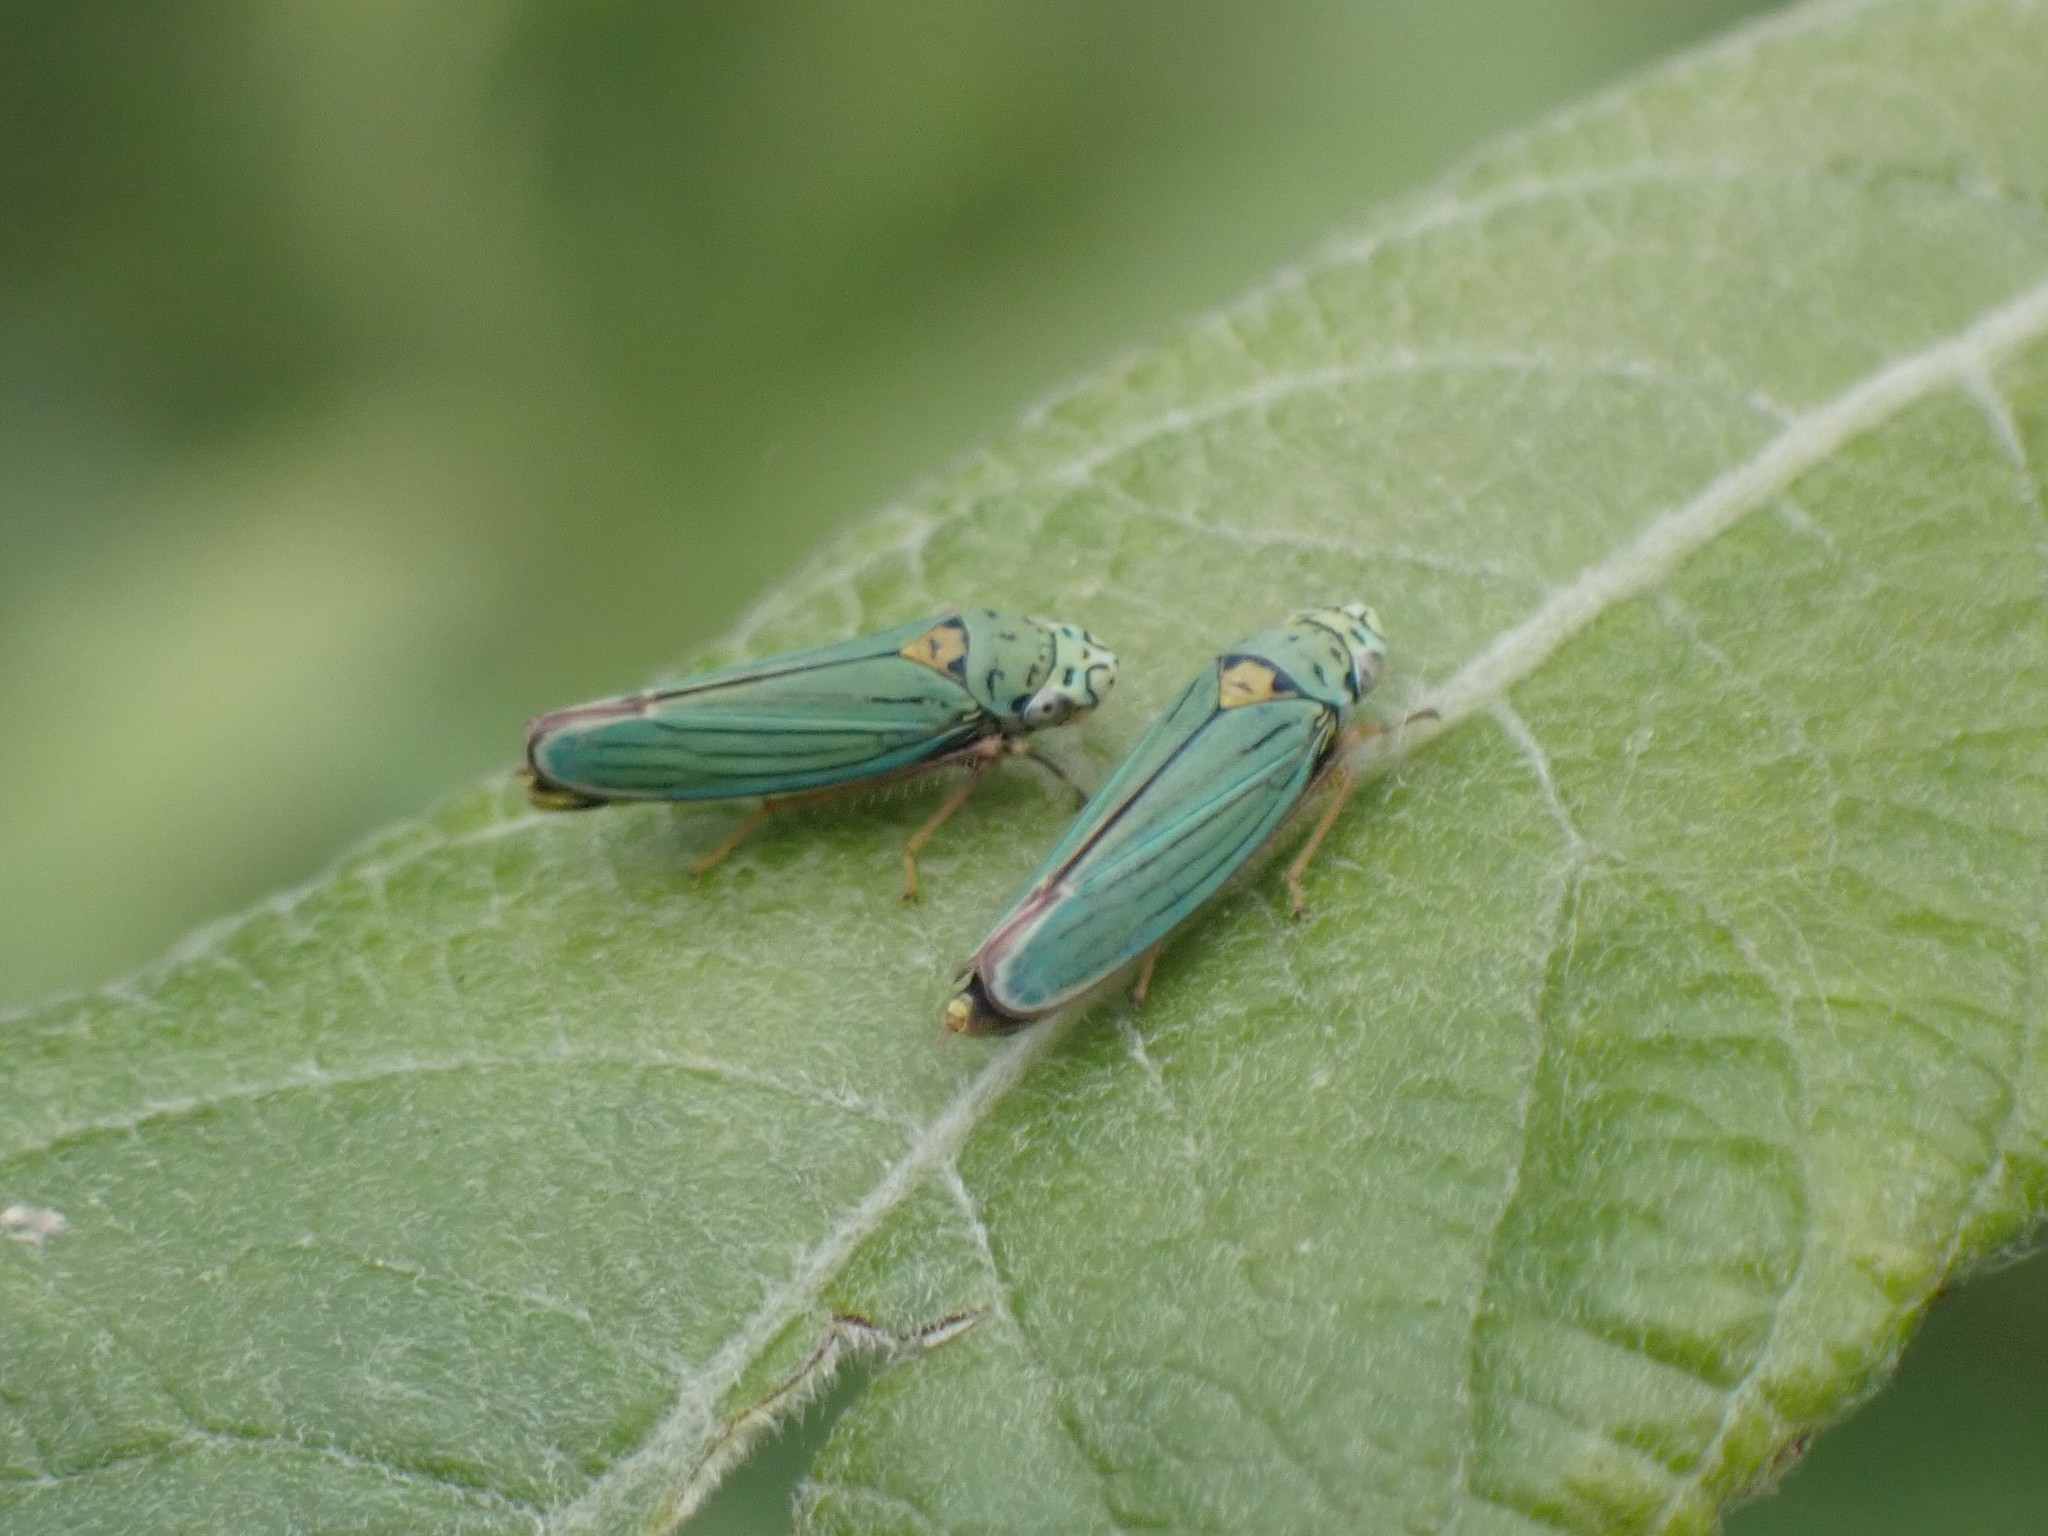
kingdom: Animalia
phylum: Arthropoda
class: Insecta
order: Hemiptera
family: Cicadellidae
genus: Graphocephala
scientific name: Graphocephala atropunctata
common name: Blue-green sharpshooter
